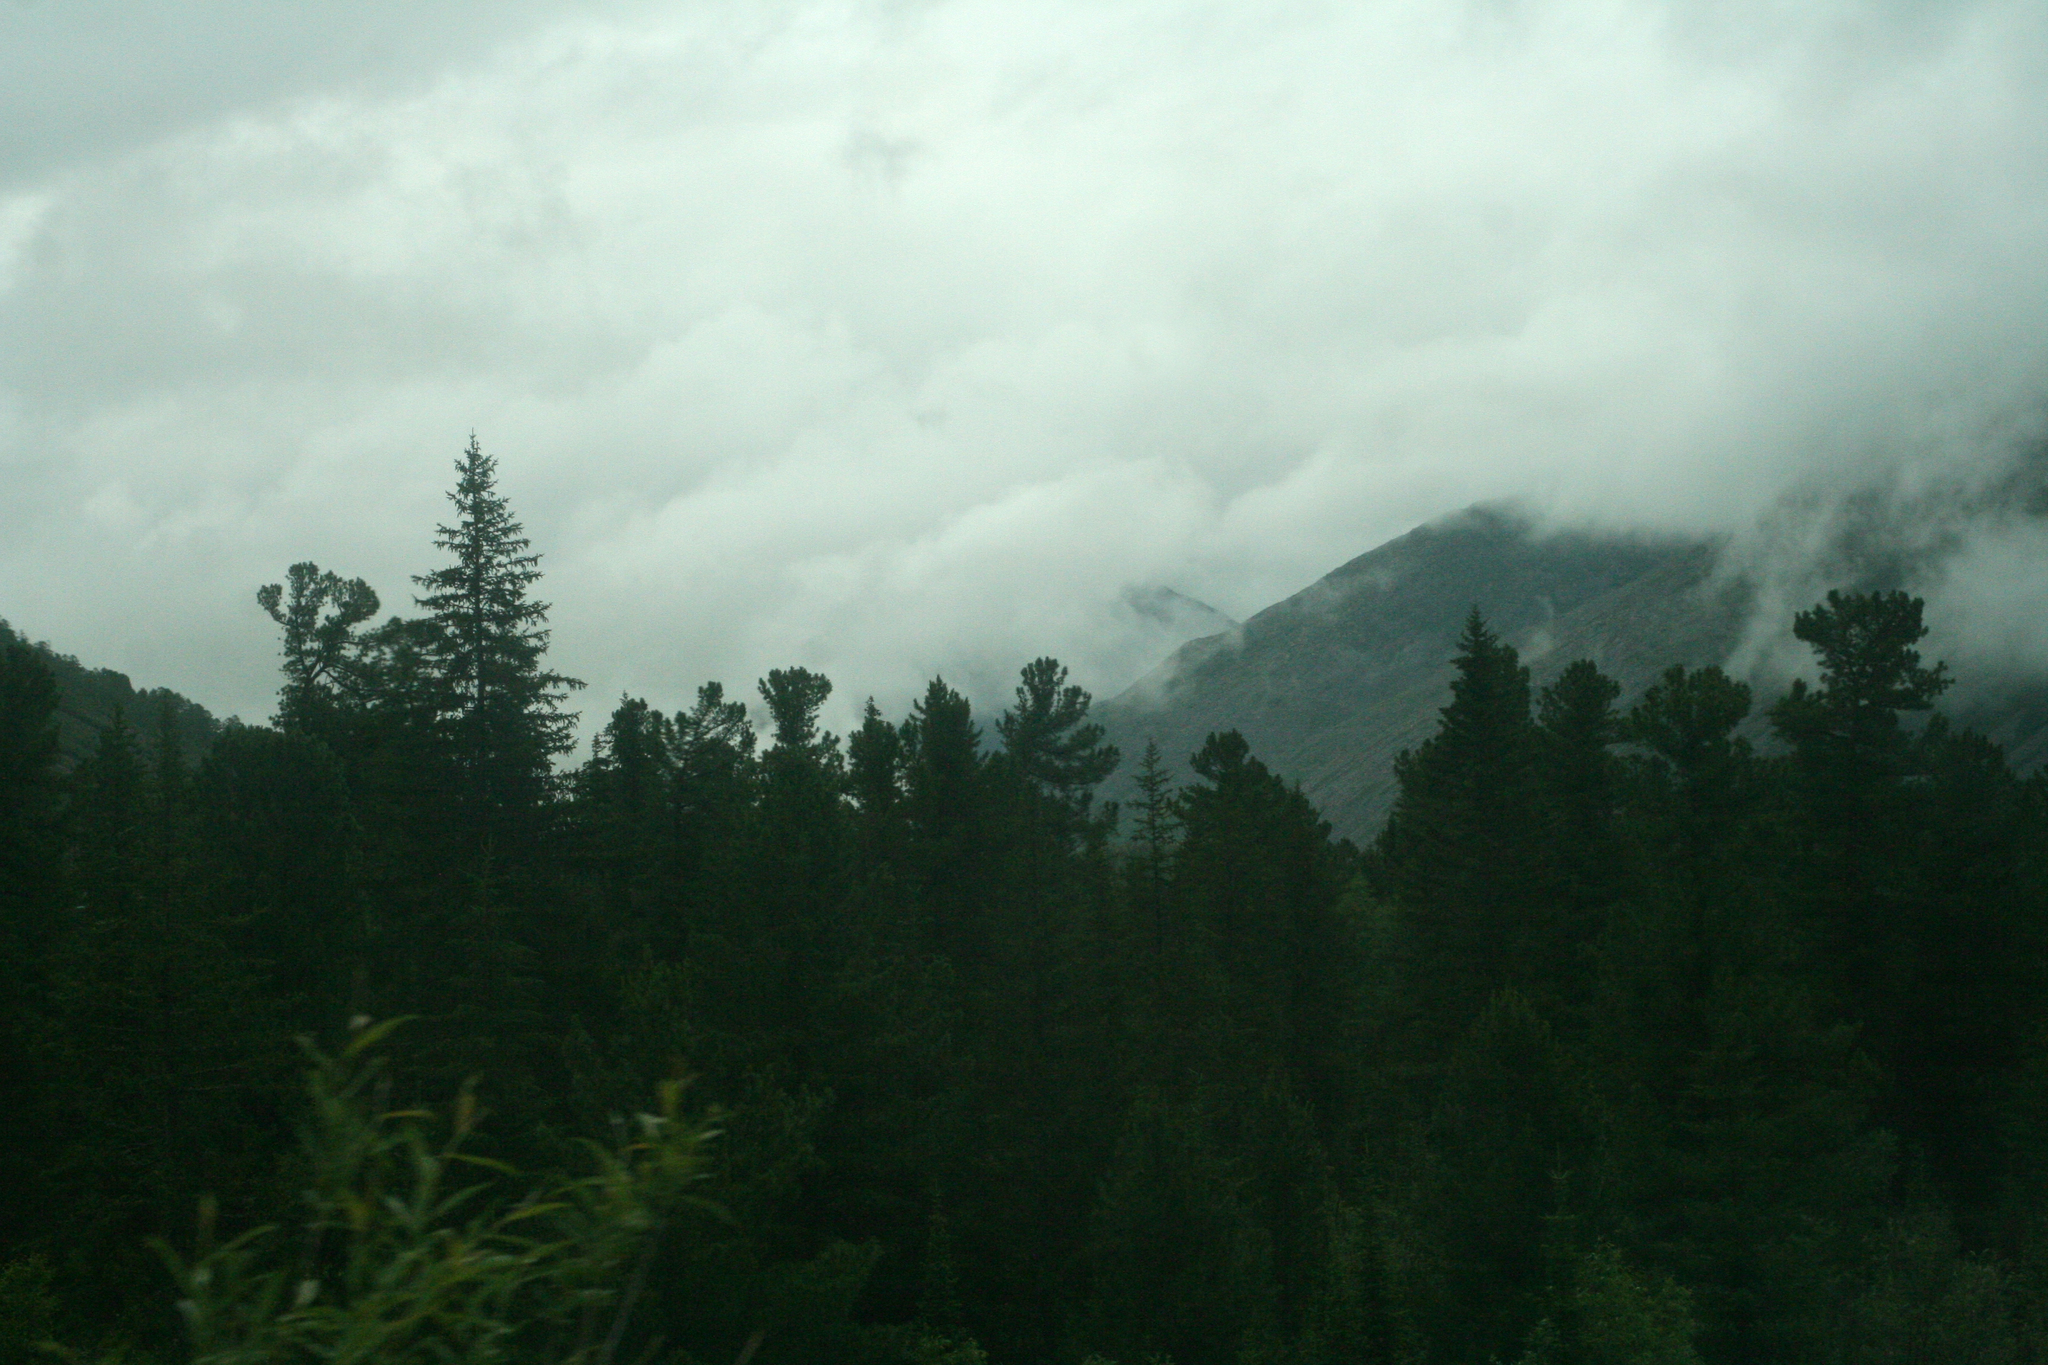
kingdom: Plantae
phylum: Tracheophyta
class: Pinopsida
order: Pinales
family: Pinaceae
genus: Picea
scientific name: Picea obovata
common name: Siberian spruce
